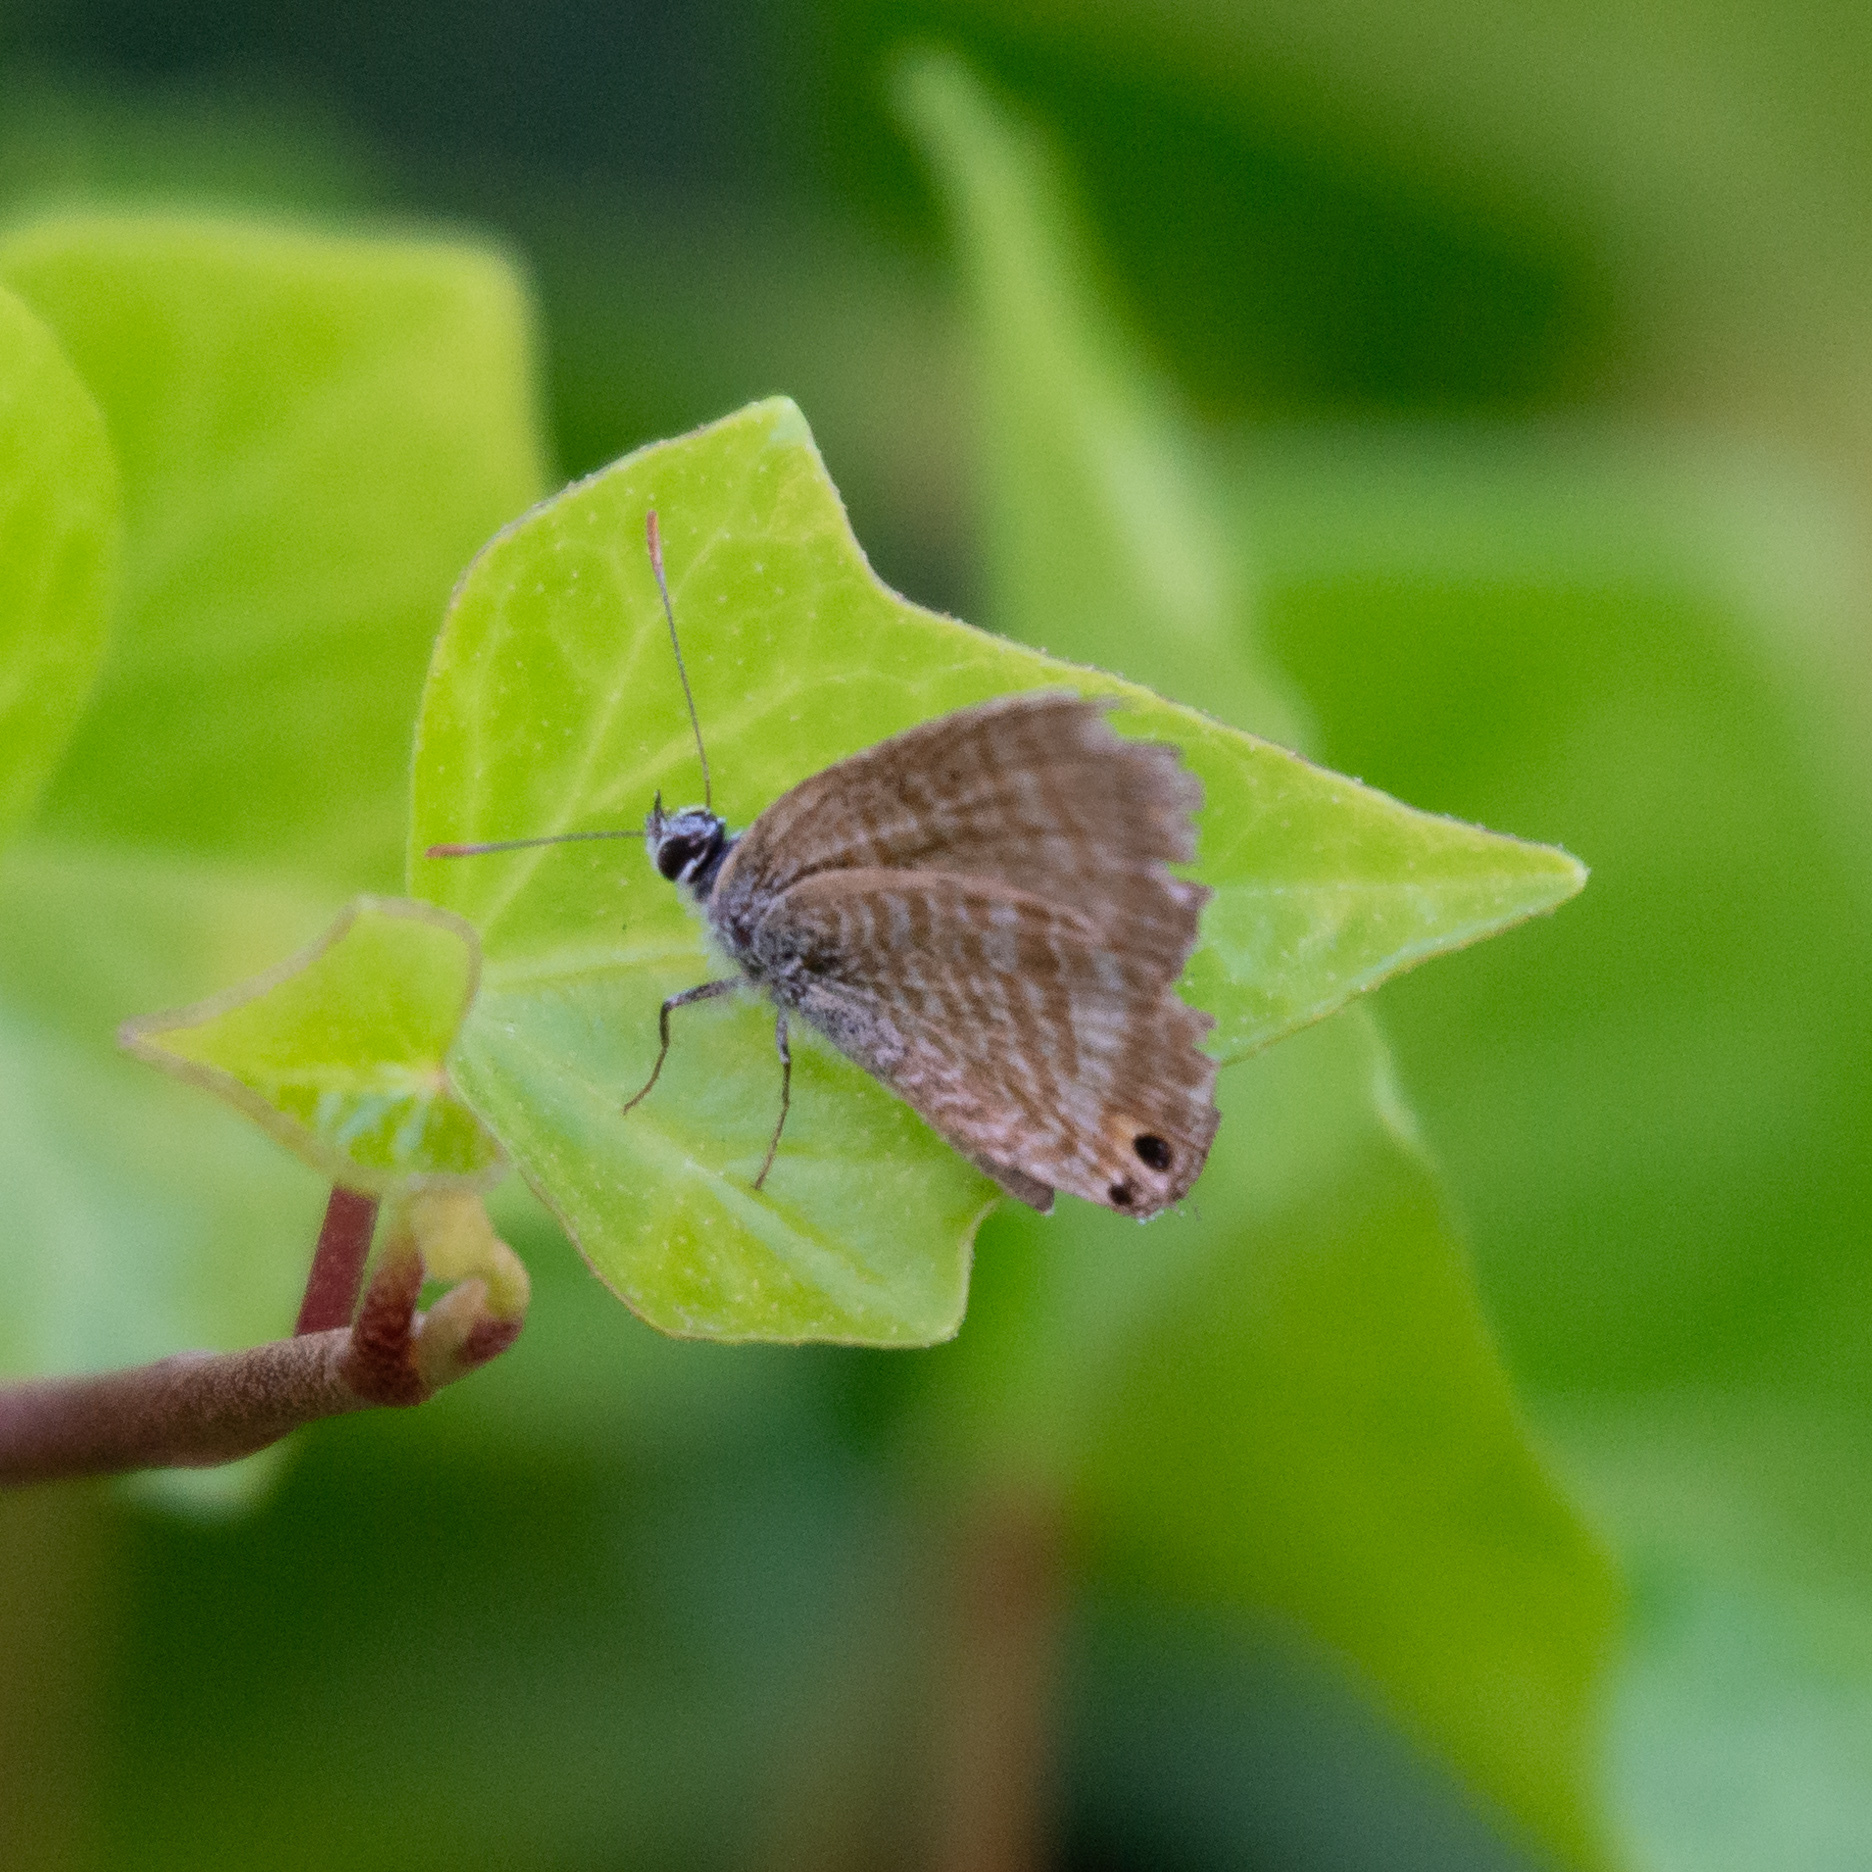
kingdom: Animalia
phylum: Arthropoda
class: Insecta
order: Lepidoptera
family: Lycaenidae
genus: Lampides
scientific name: Lampides boeticus
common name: Long-tailed blue
